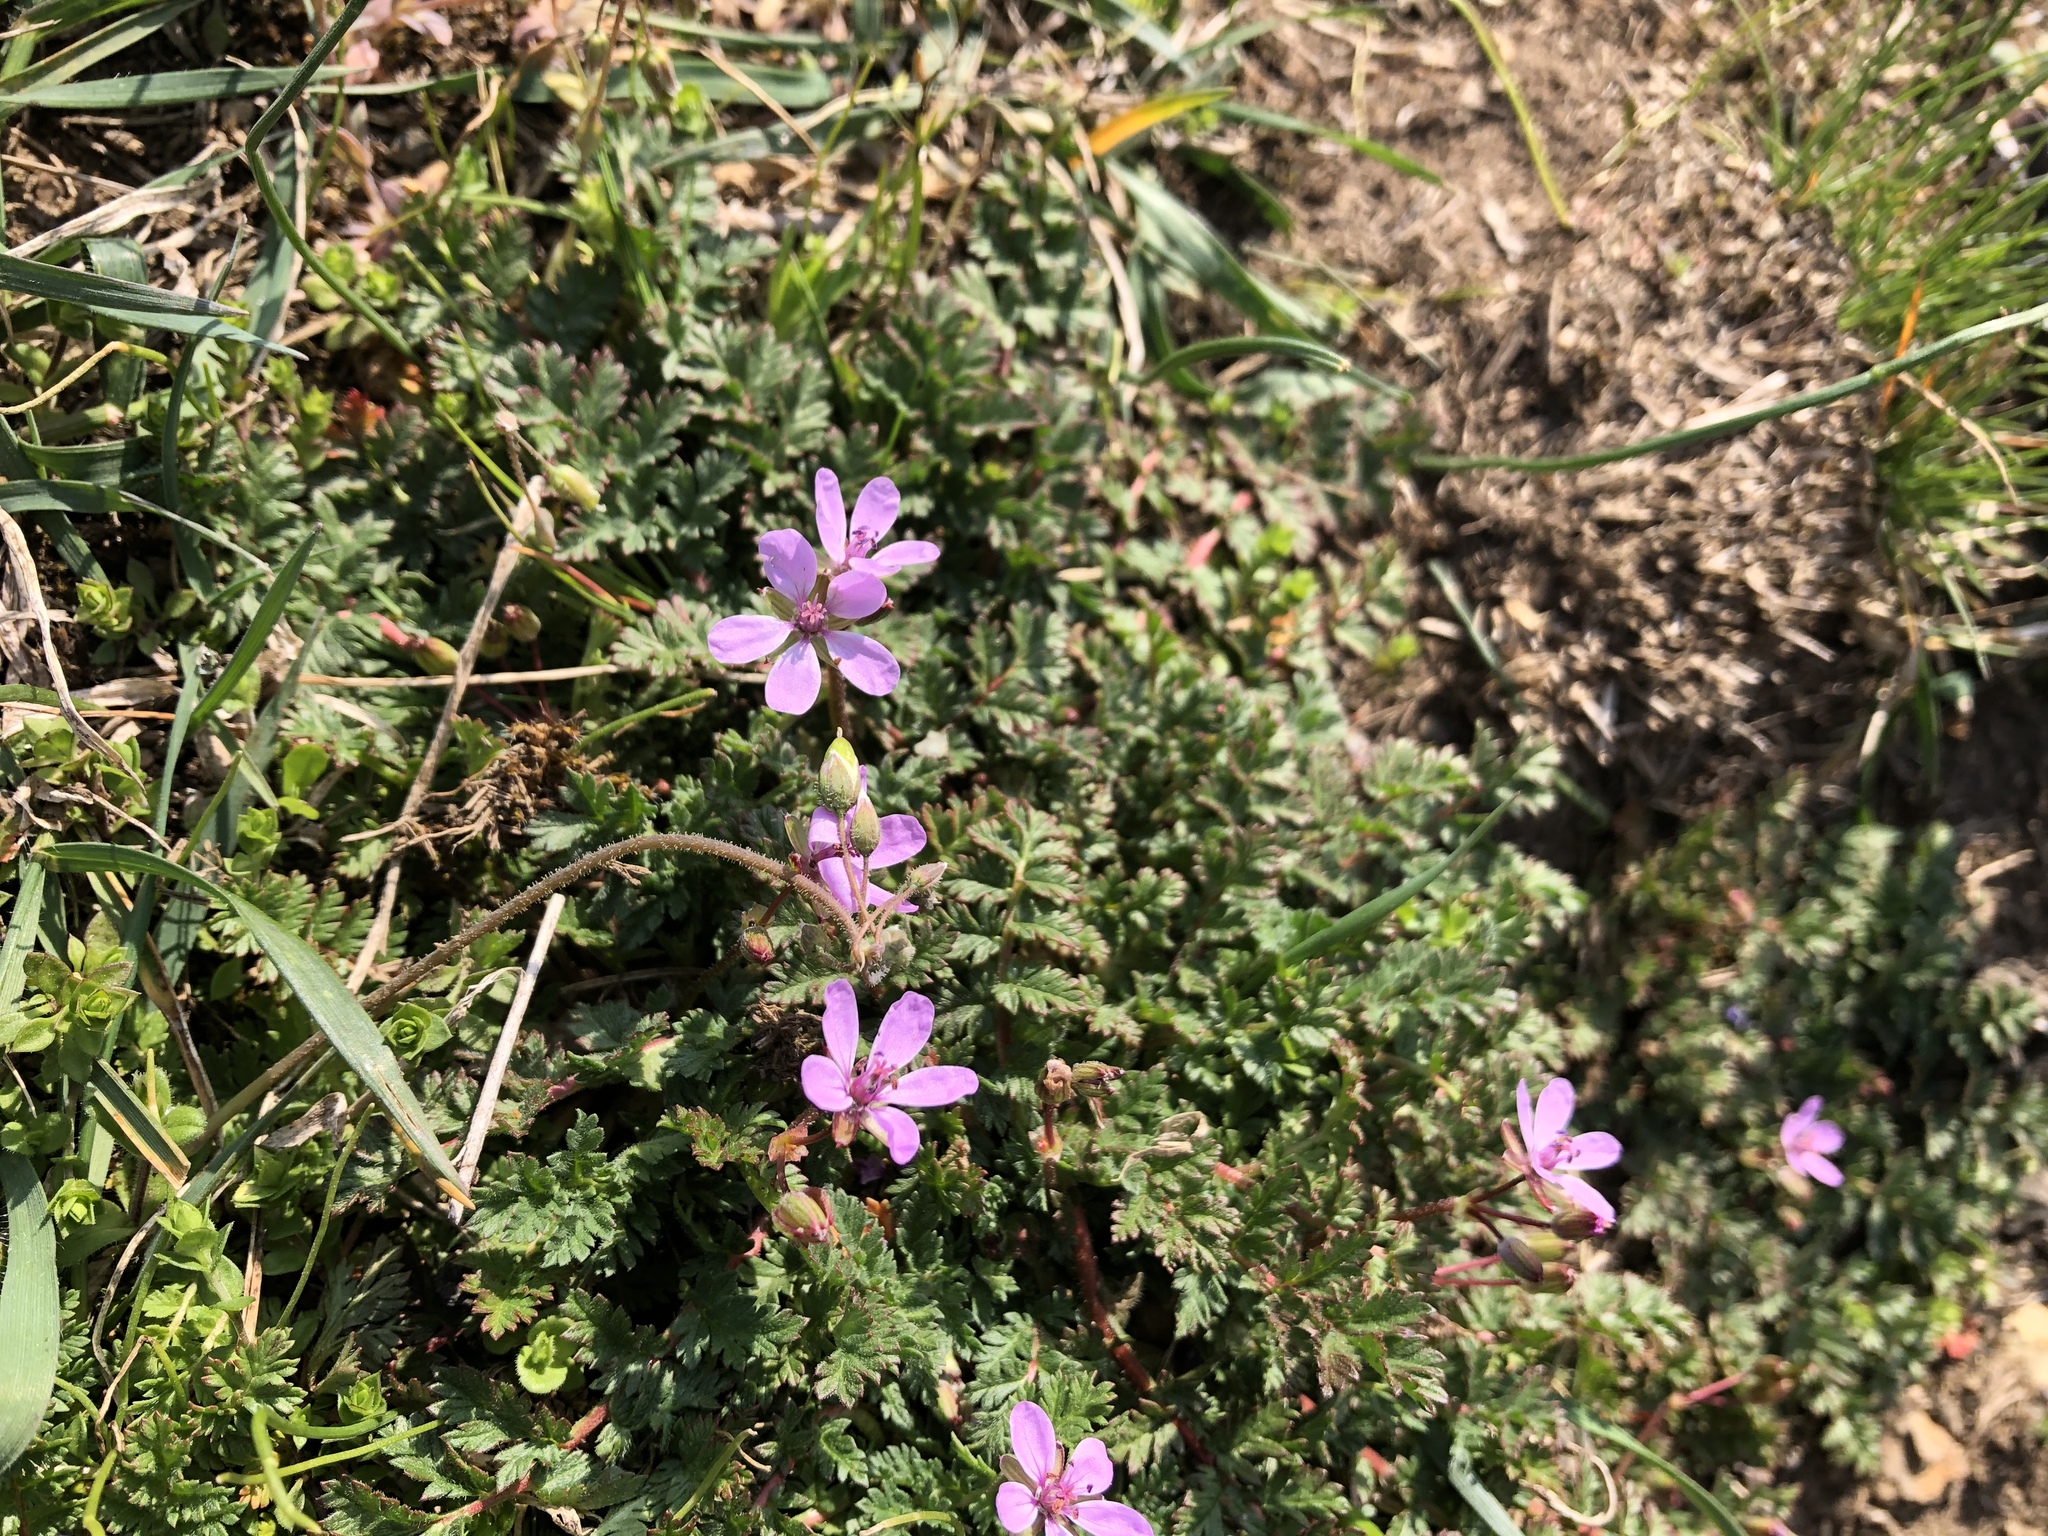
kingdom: Plantae
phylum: Tracheophyta
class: Magnoliopsida
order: Geraniales
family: Geraniaceae
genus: Erodium
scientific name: Erodium cicutarium
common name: Common stork's-bill
